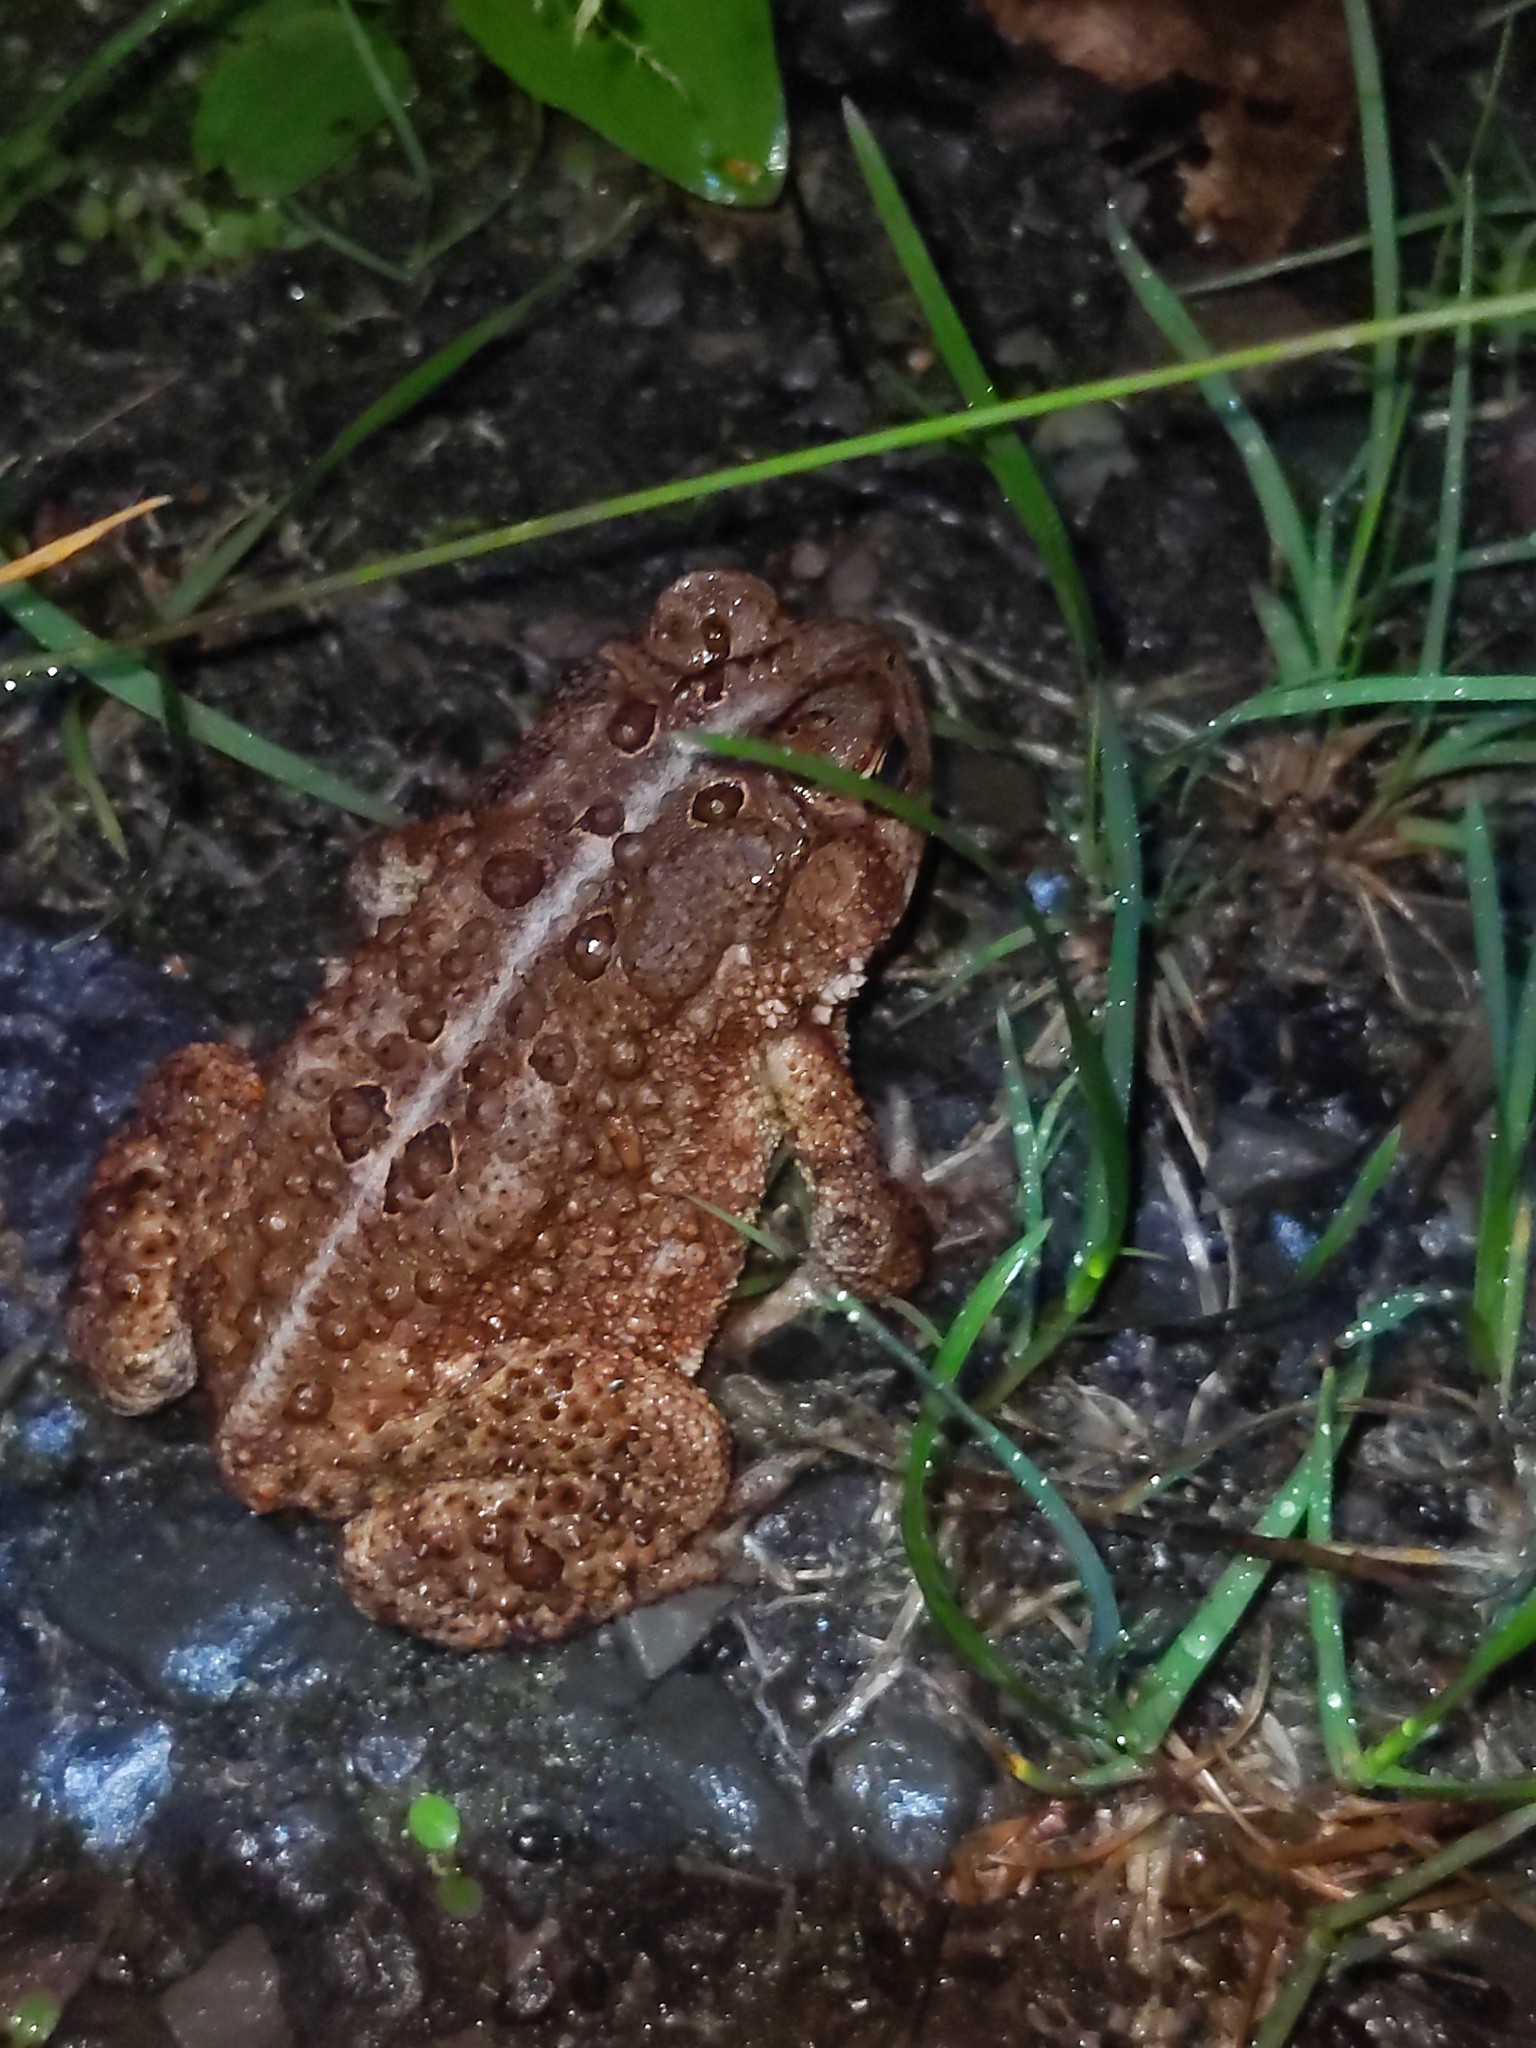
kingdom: Animalia
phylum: Chordata
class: Amphibia
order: Anura
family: Bufonidae
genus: Anaxyrus
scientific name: Anaxyrus americanus
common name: American toad
